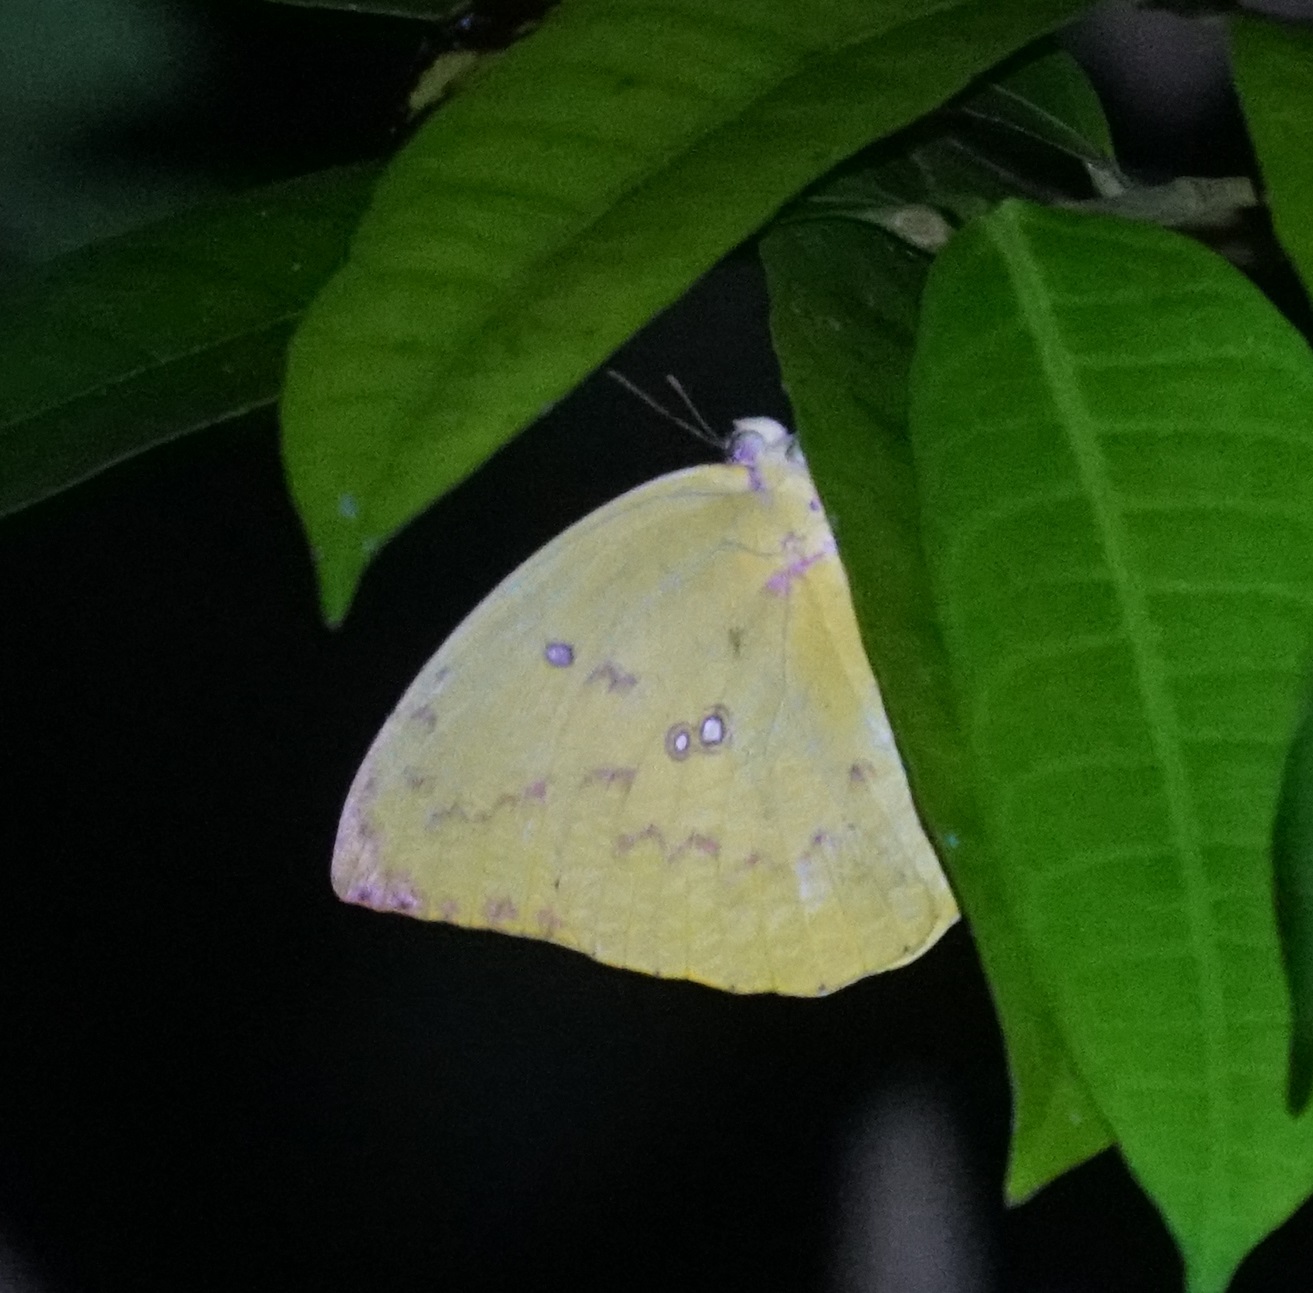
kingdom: Animalia
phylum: Arthropoda
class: Insecta
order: Lepidoptera
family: Pieridae
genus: Catopsilia
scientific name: Catopsilia pomona
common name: Common emigrant
